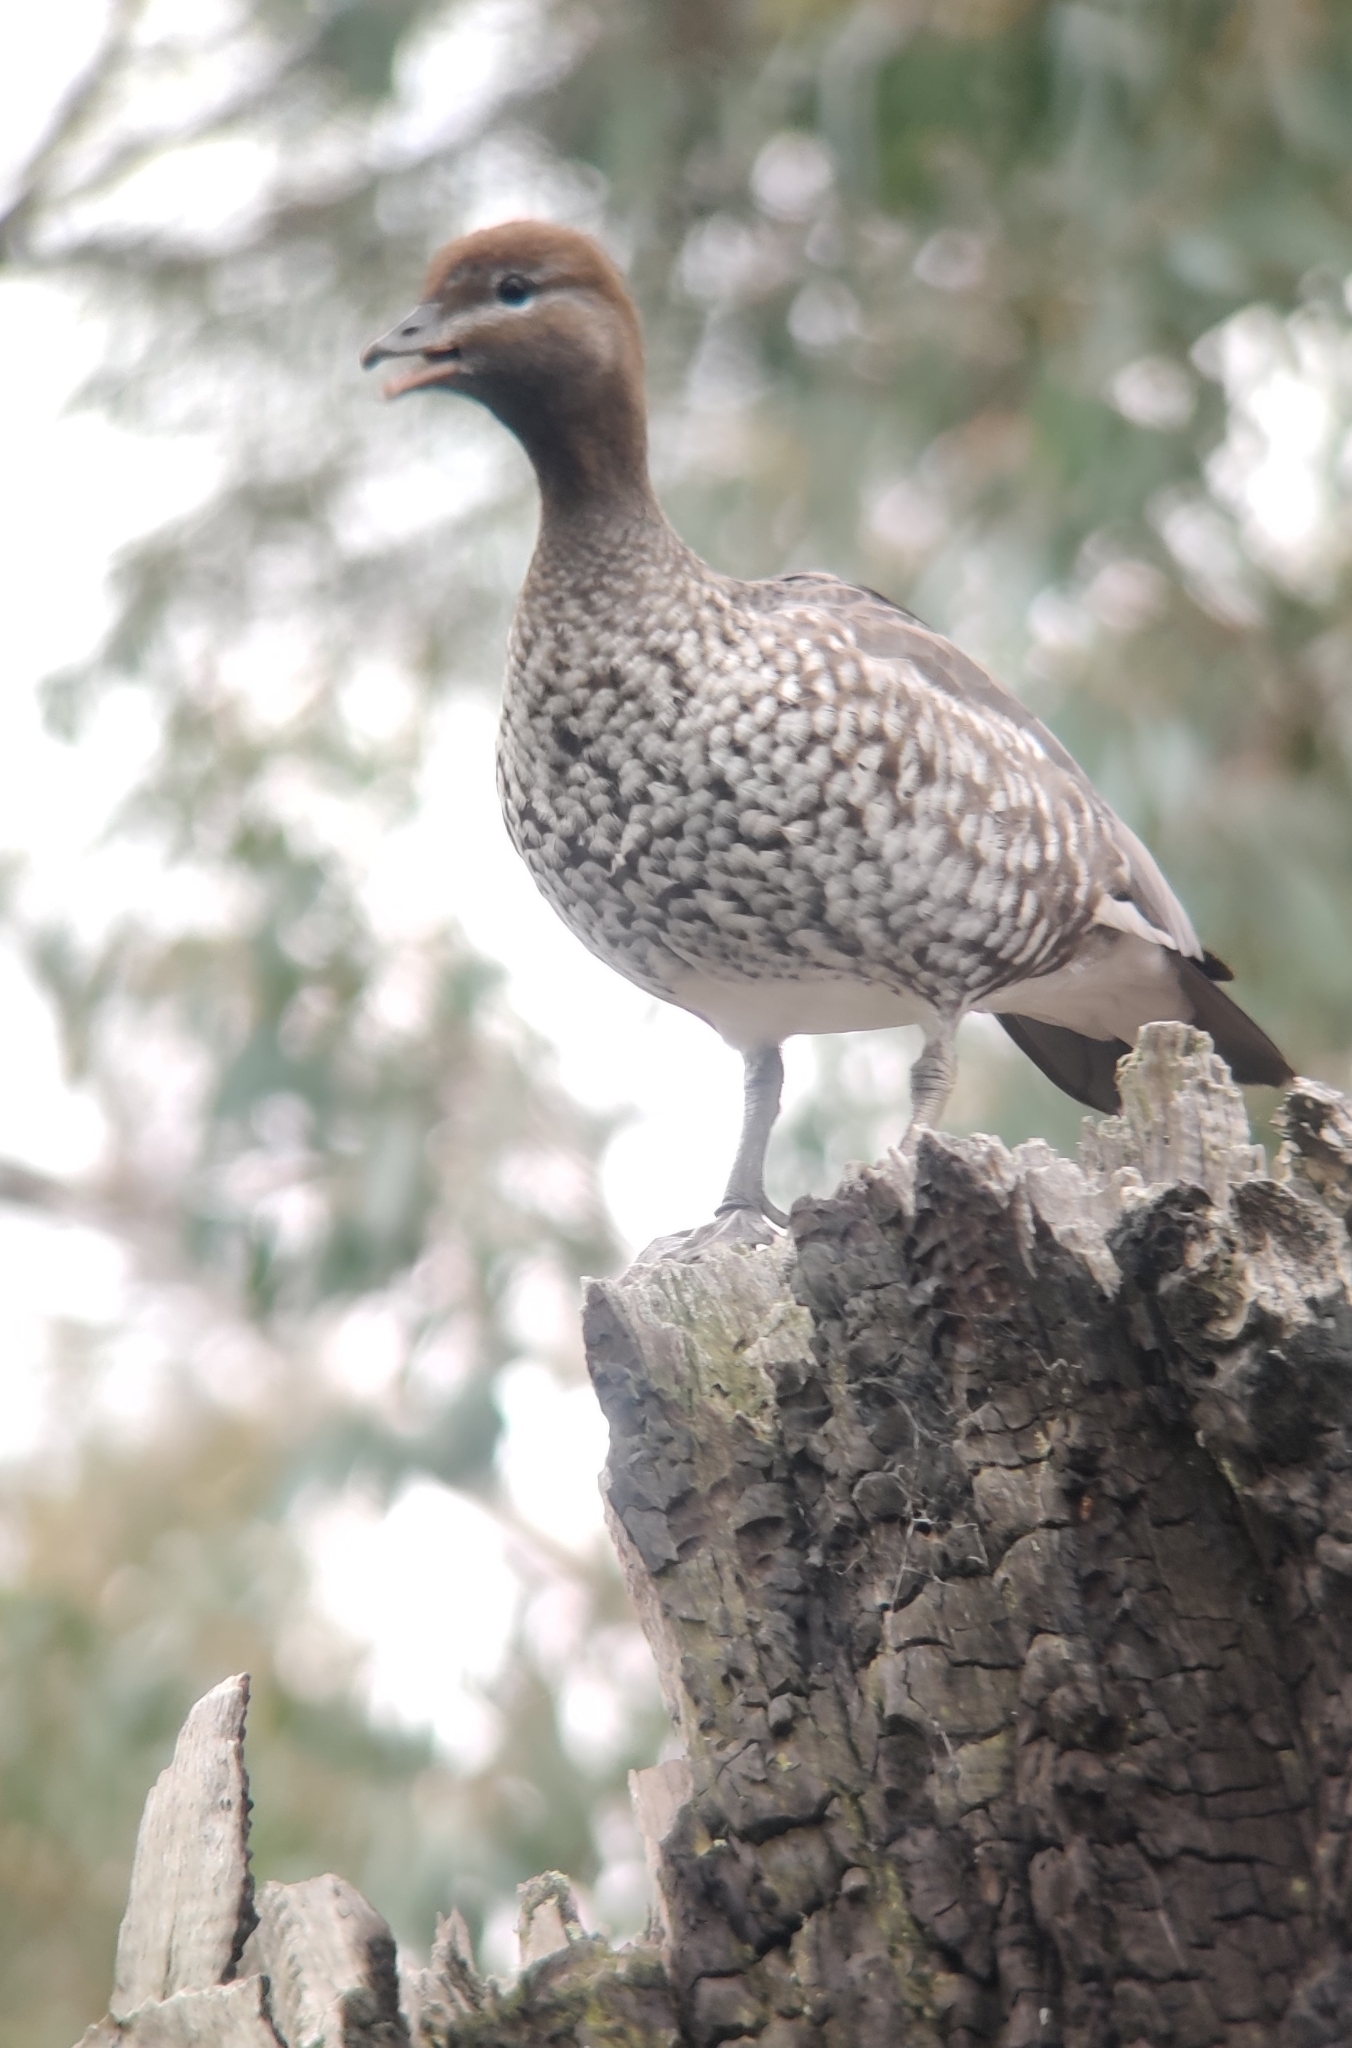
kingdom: Animalia
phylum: Chordata
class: Aves
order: Anseriformes
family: Anatidae
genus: Chenonetta
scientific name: Chenonetta jubata
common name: Maned duck
